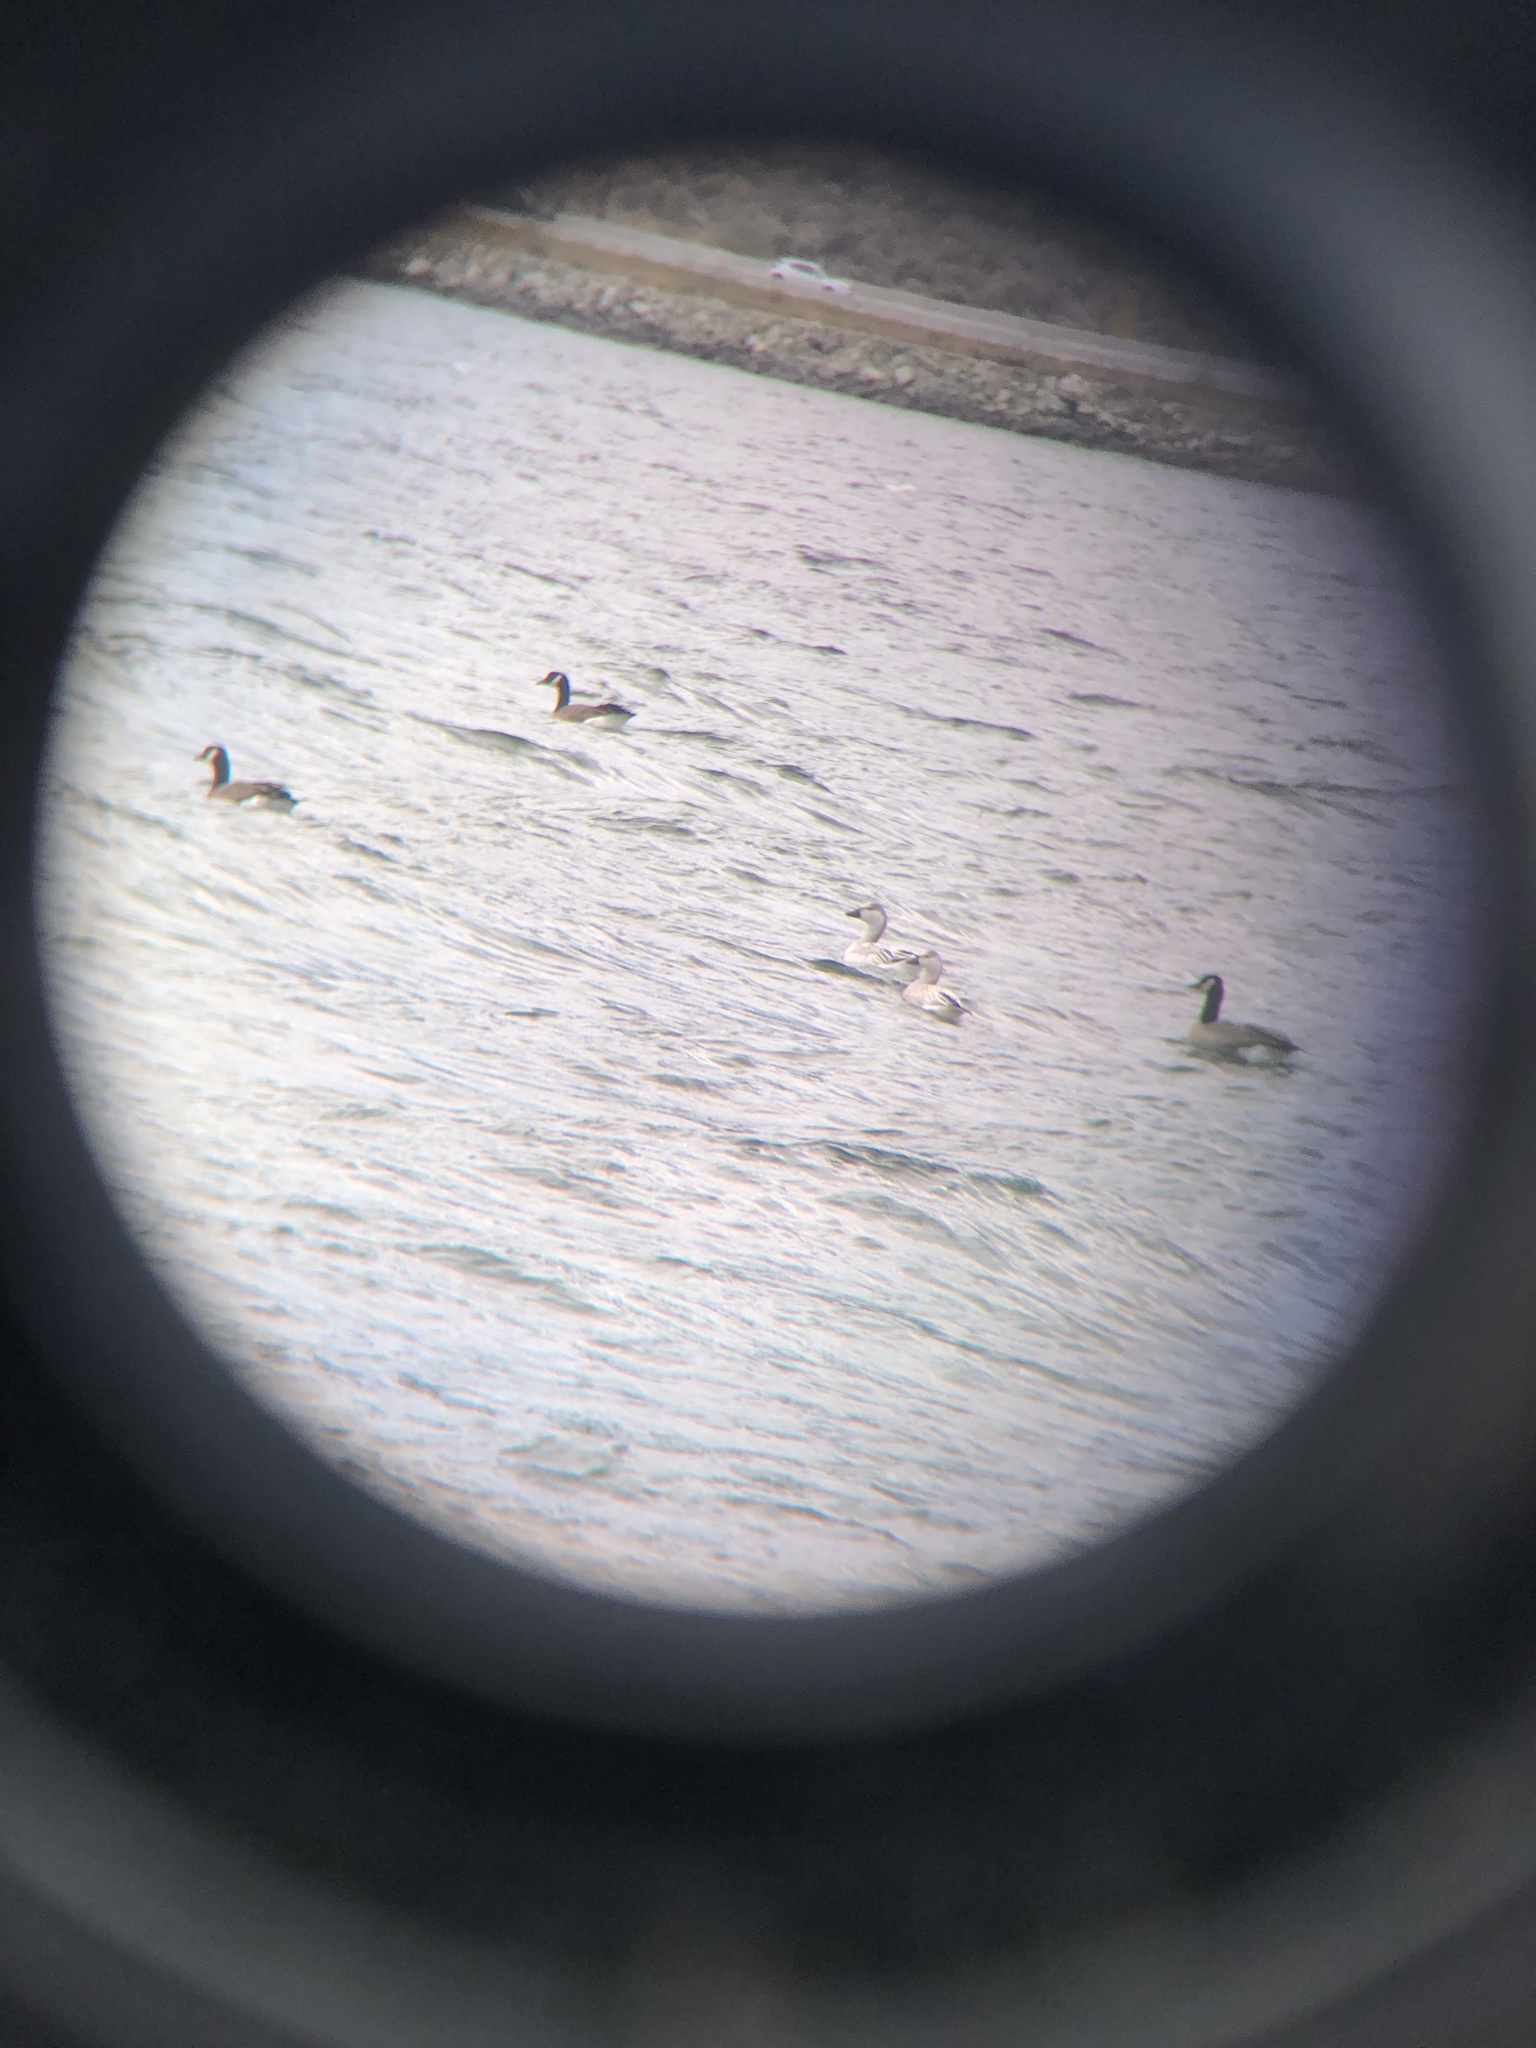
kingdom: Animalia
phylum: Chordata
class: Aves
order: Anseriformes
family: Anatidae
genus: Anser
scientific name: Anser caerulescens
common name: Snow goose
